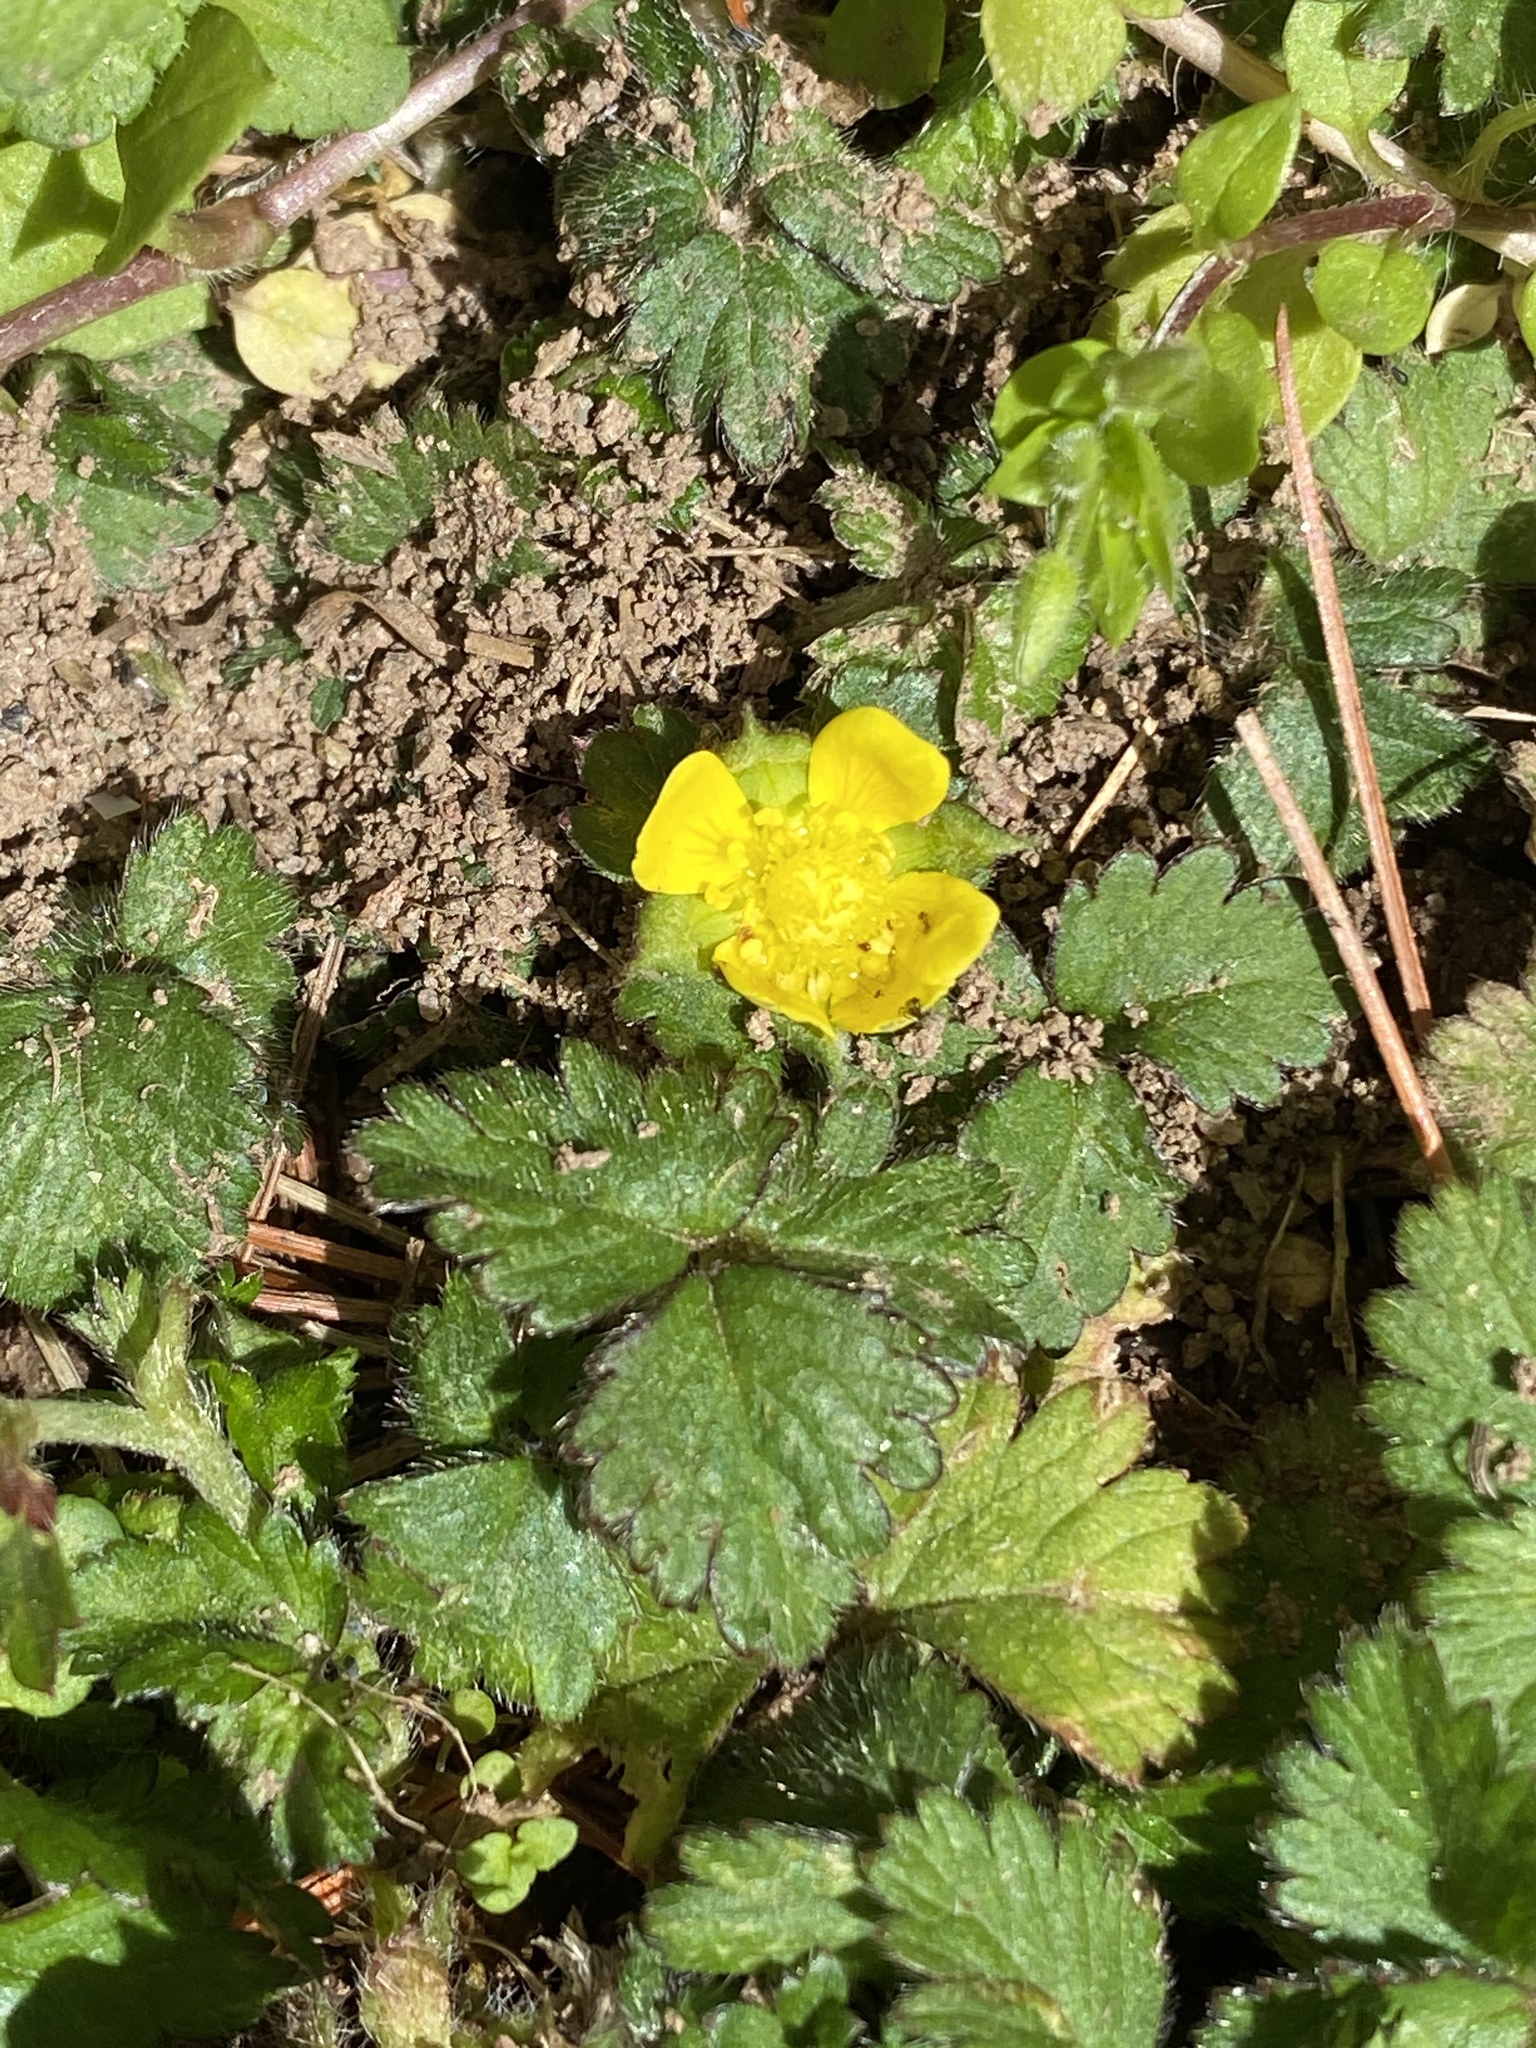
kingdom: Plantae
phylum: Tracheophyta
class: Magnoliopsida
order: Rosales
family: Rosaceae
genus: Potentilla
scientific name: Potentilla indica
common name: Yellow-flowered strawberry
